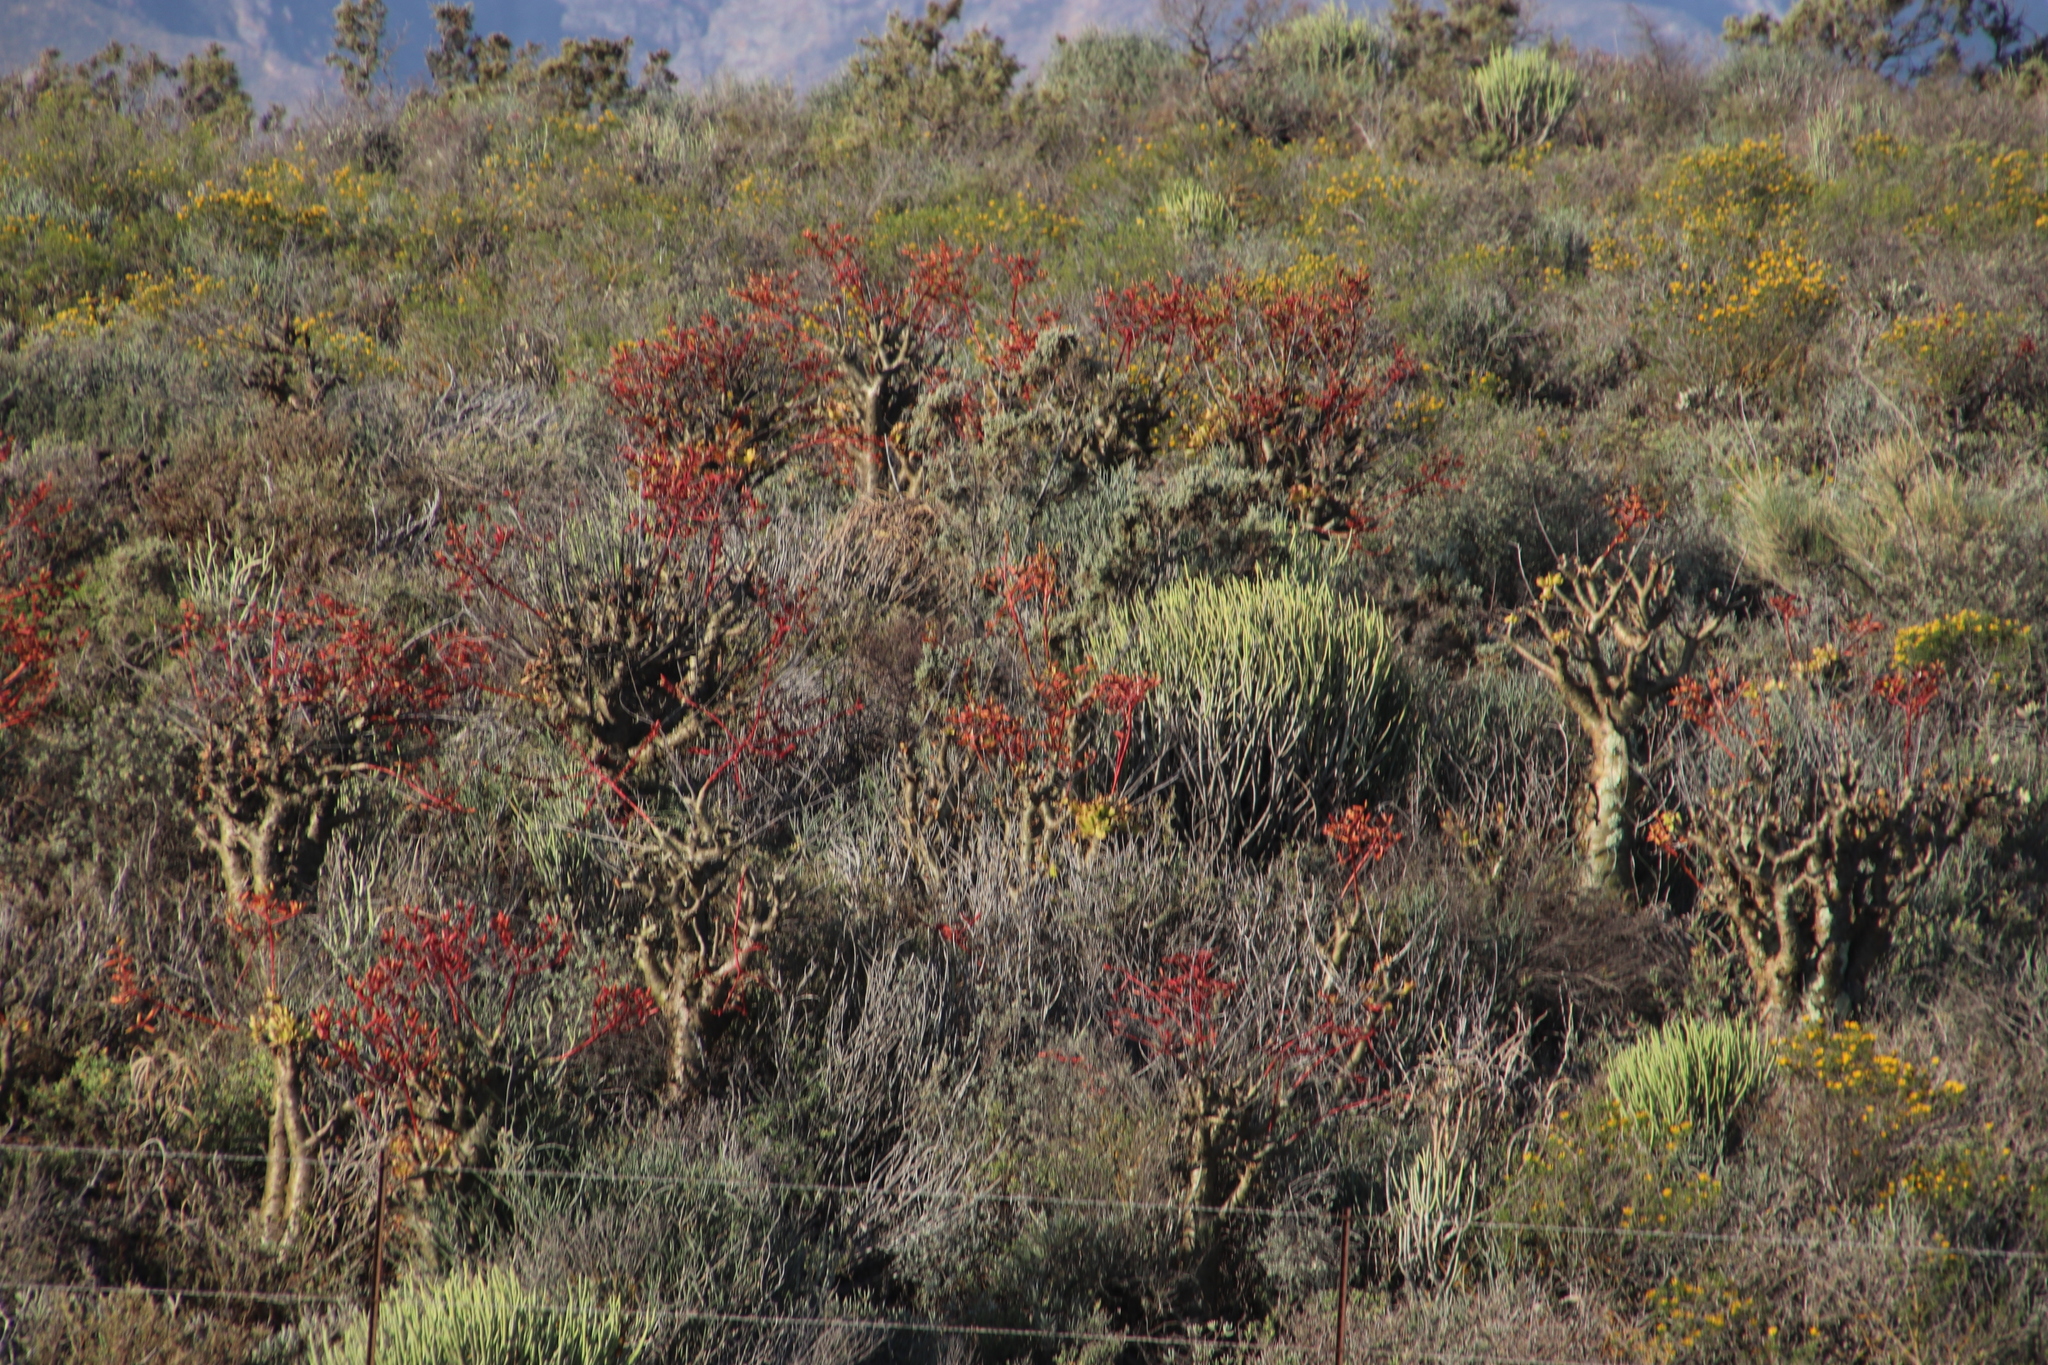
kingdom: Plantae
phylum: Tracheophyta
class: Magnoliopsida
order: Malpighiales
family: Euphorbiaceae
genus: Euphorbia
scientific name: Euphorbia mauritanica
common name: Jackal's-food
